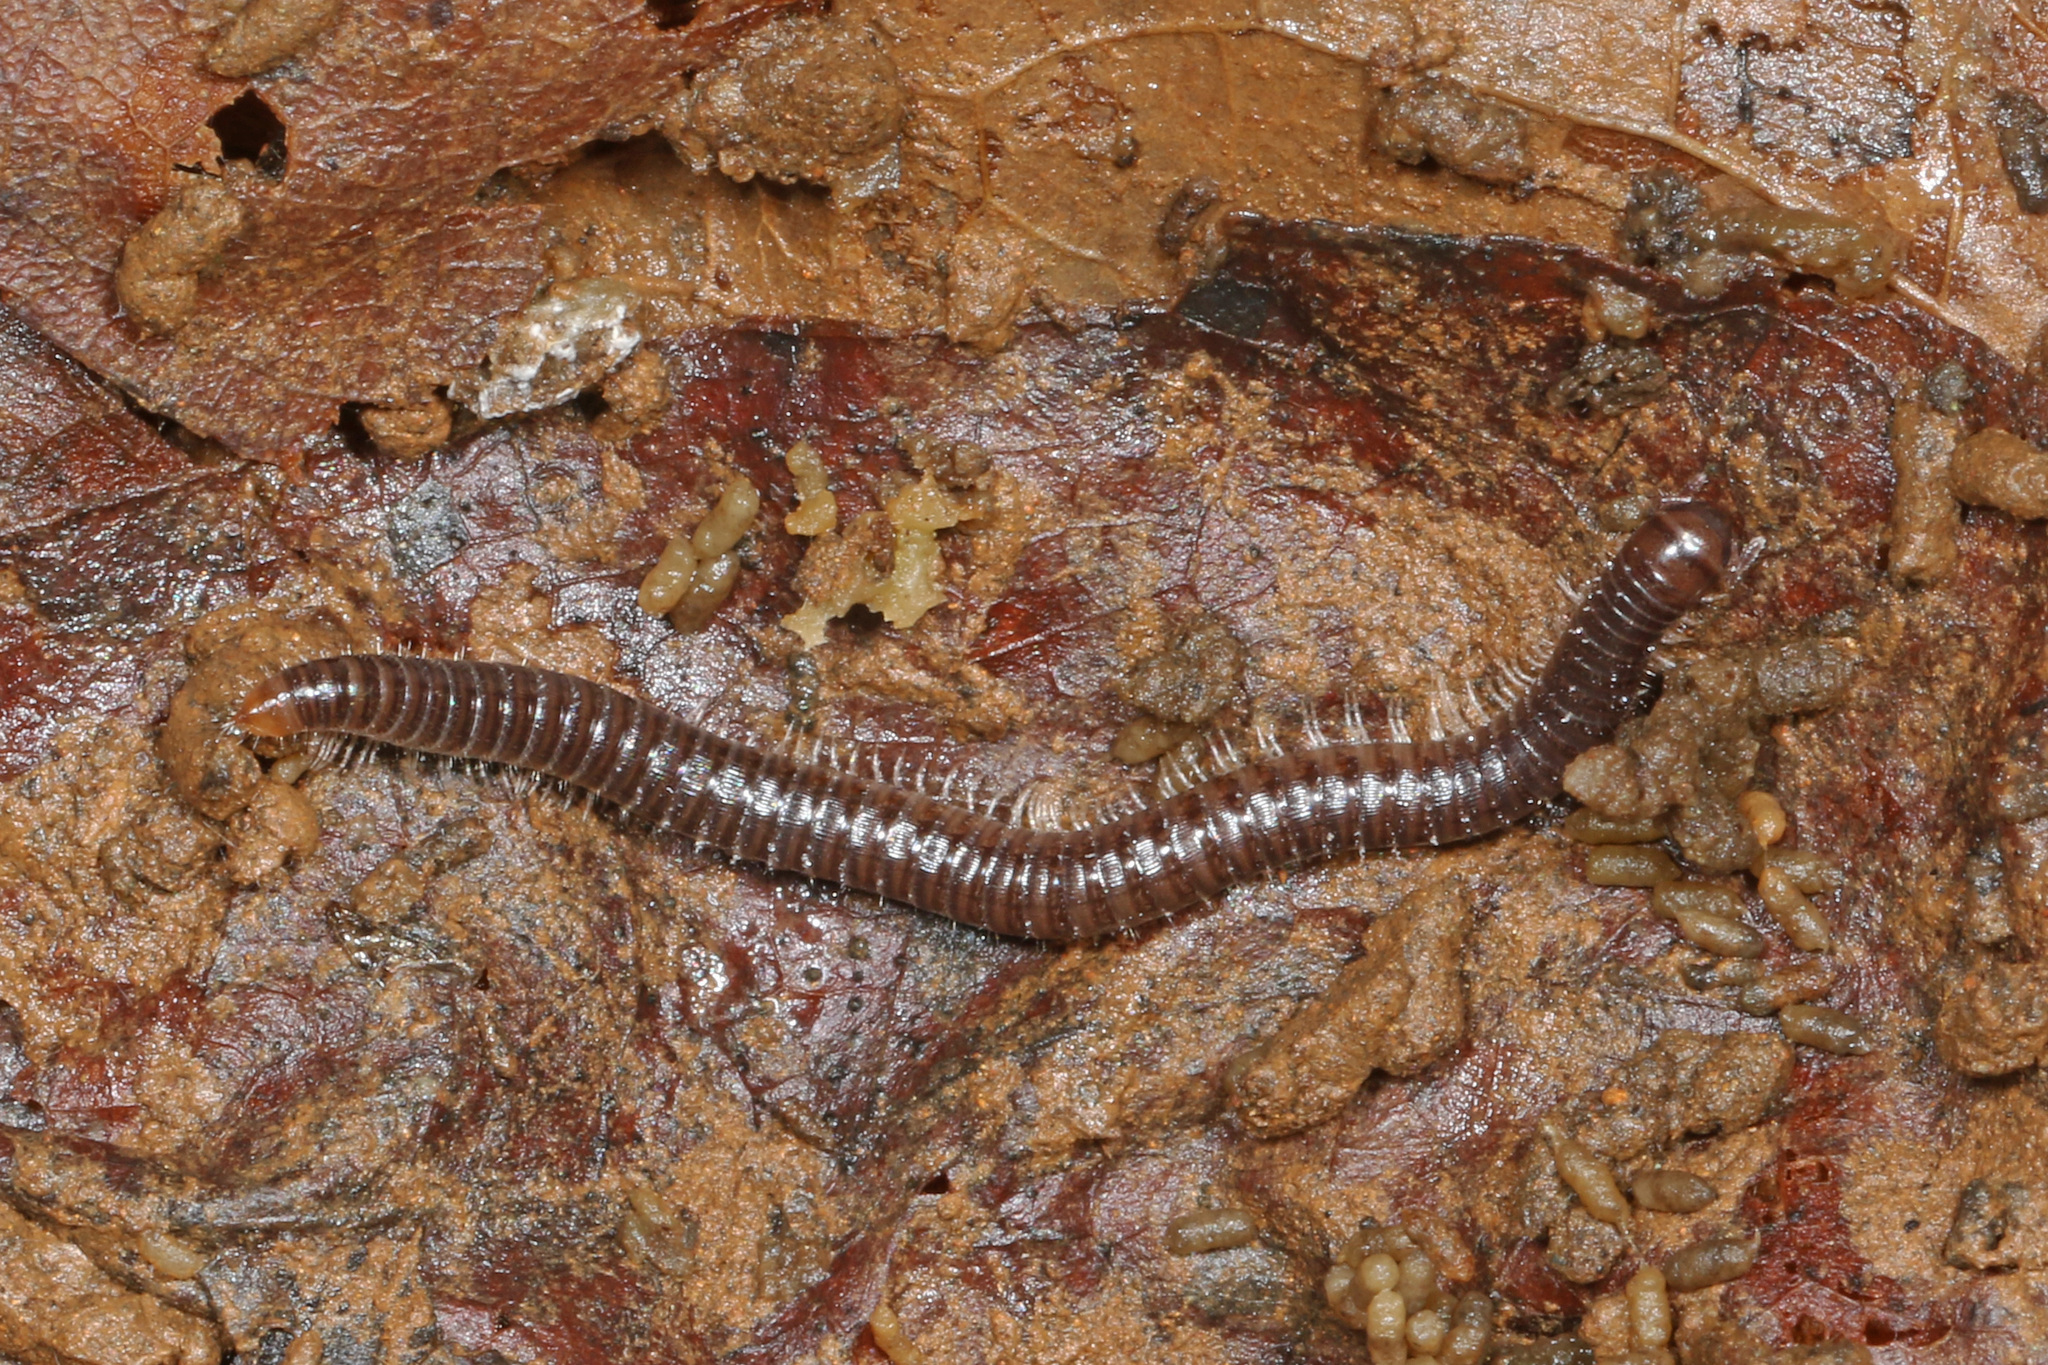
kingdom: Animalia
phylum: Arthropoda
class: Diplopoda
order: Julida
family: Julidae
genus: Ophyiulus
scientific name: Ophyiulus pilosus
